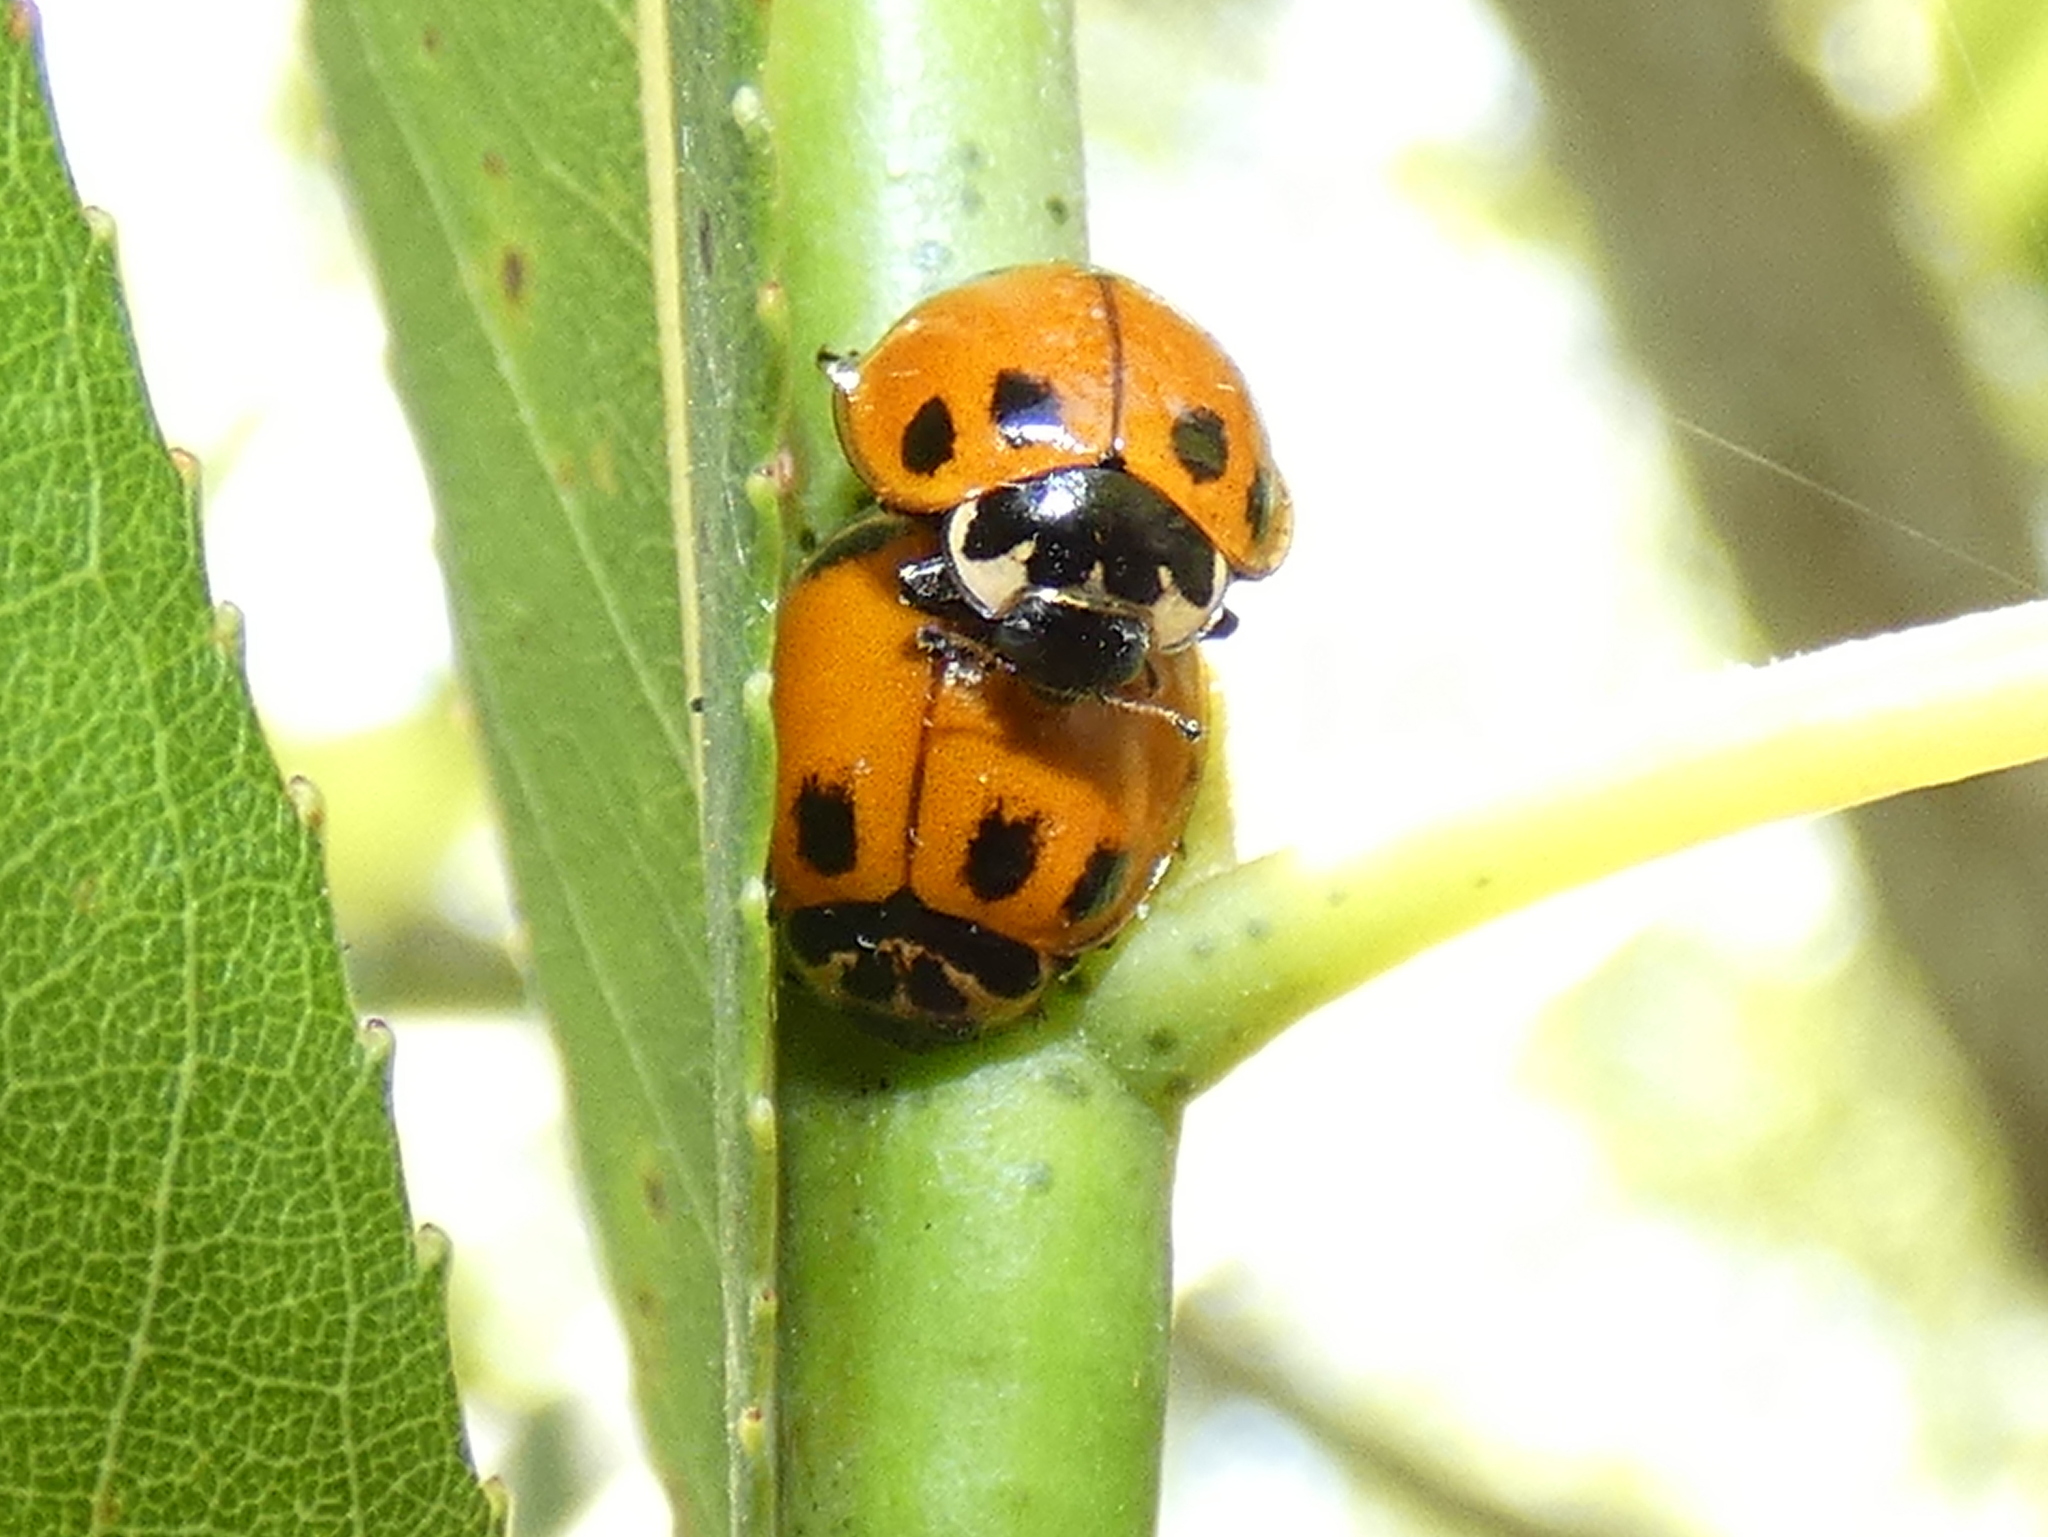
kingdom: Animalia
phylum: Arthropoda
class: Insecta
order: Coleoptera
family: Coccinellidae
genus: Neoharmonia
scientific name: Neoharmonia venusta
